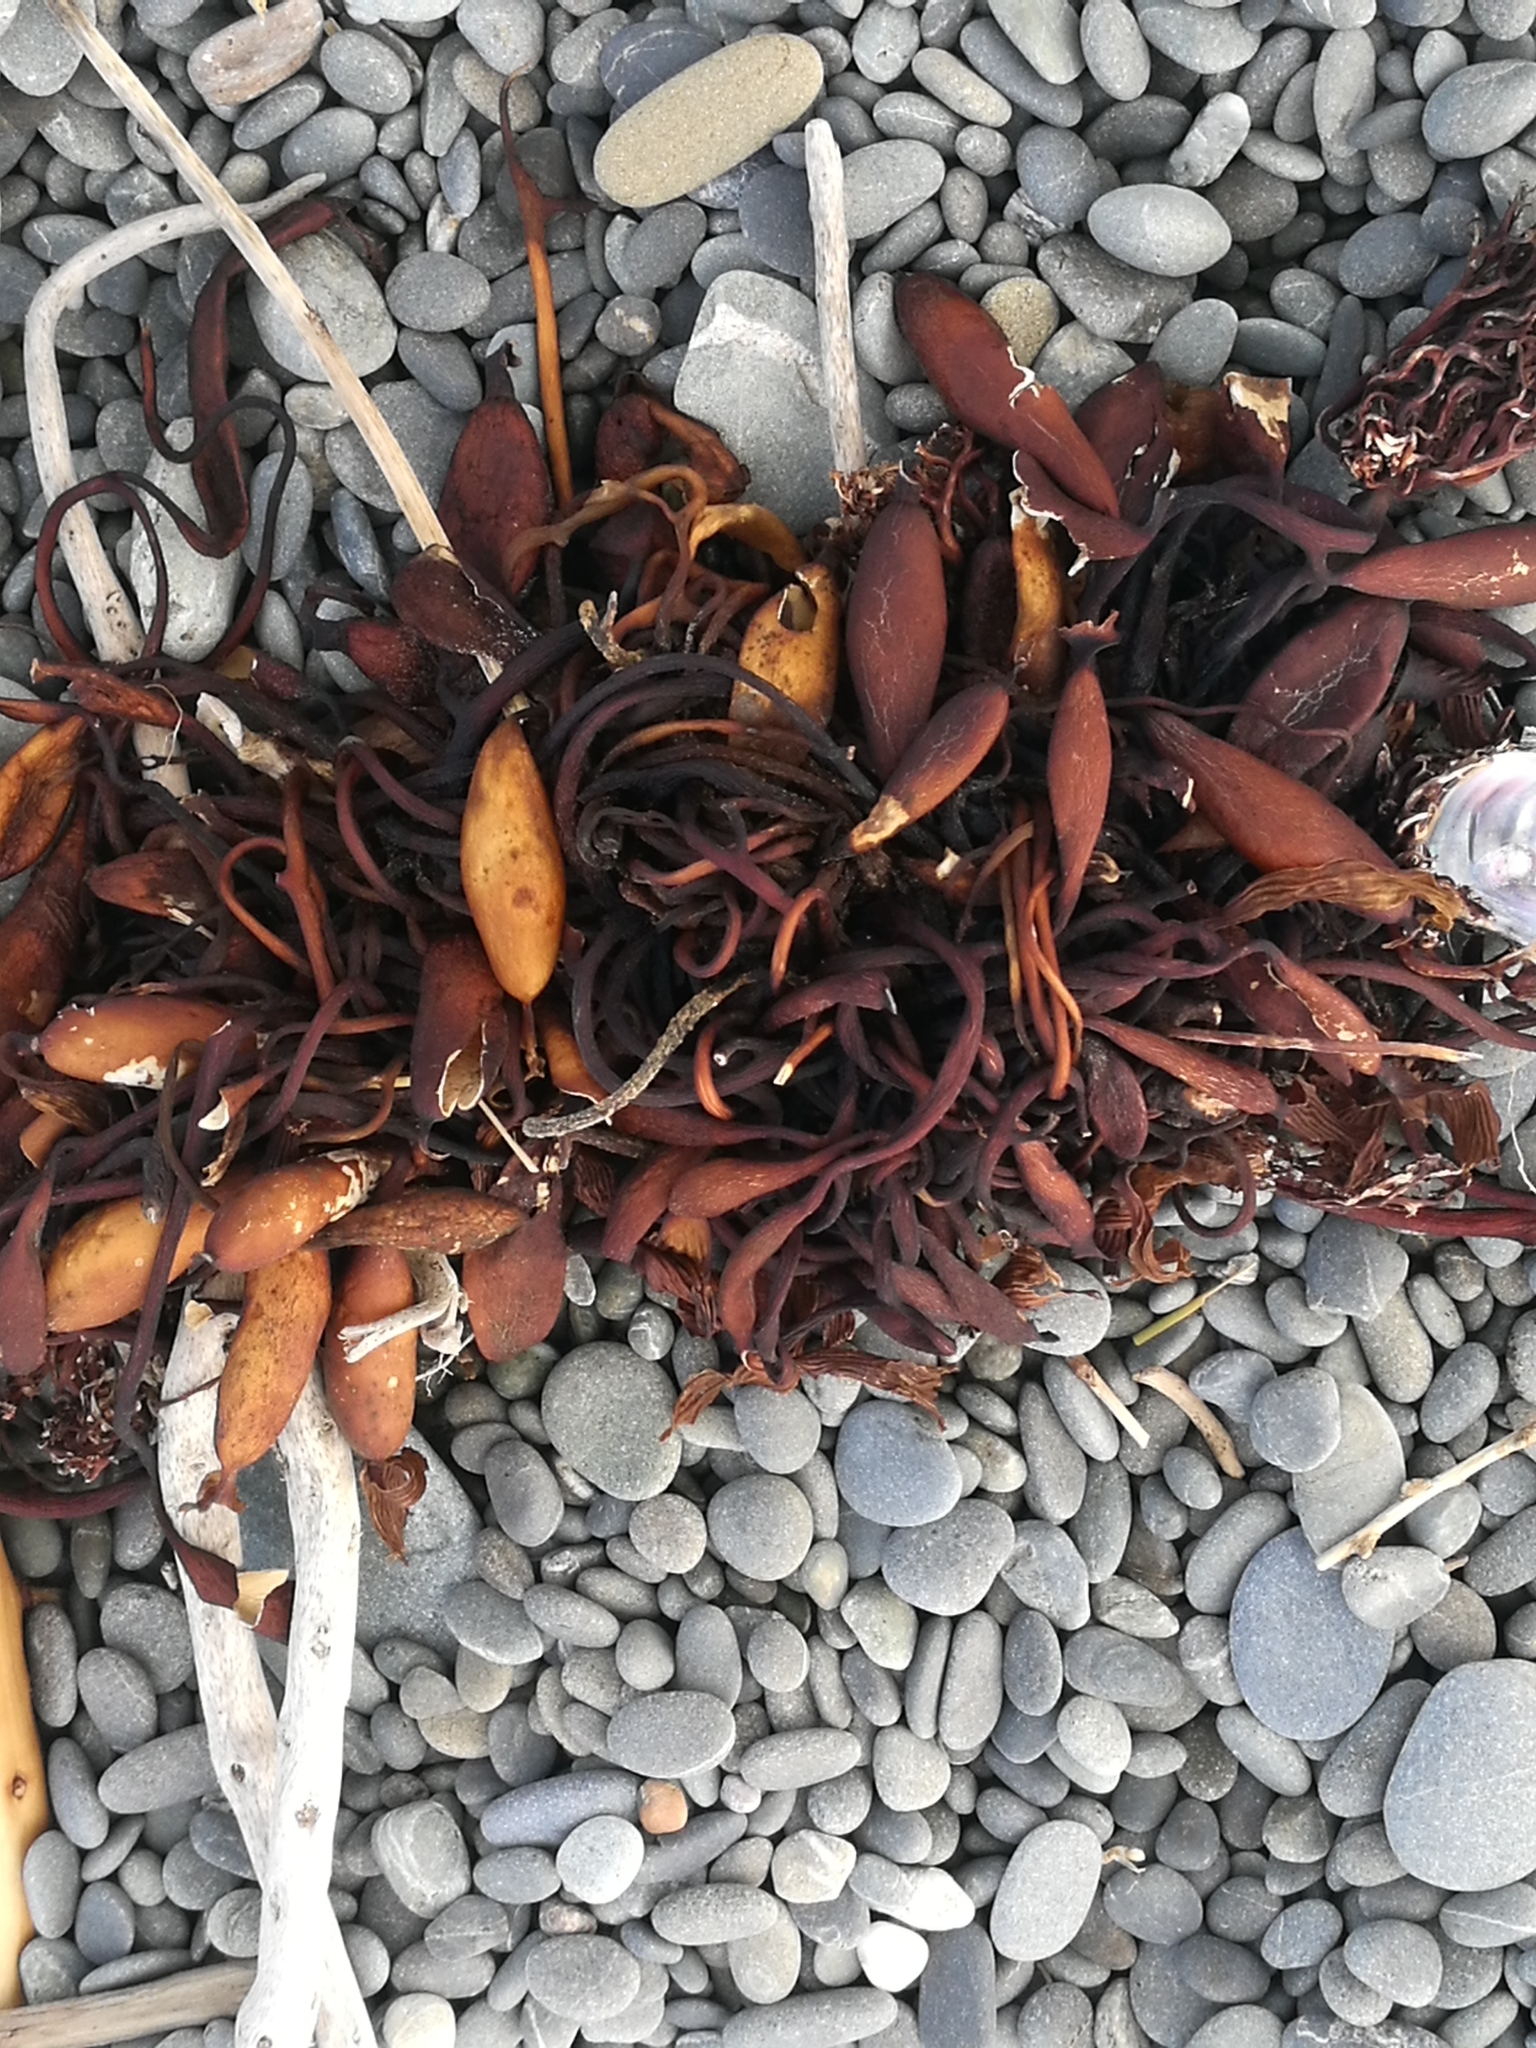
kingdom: Chromista
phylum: Ochrophyta
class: Phaeophyceae
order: Laminariales
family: Laminariaceae
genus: Macrocystis
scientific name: Macrocystis pyrifera
